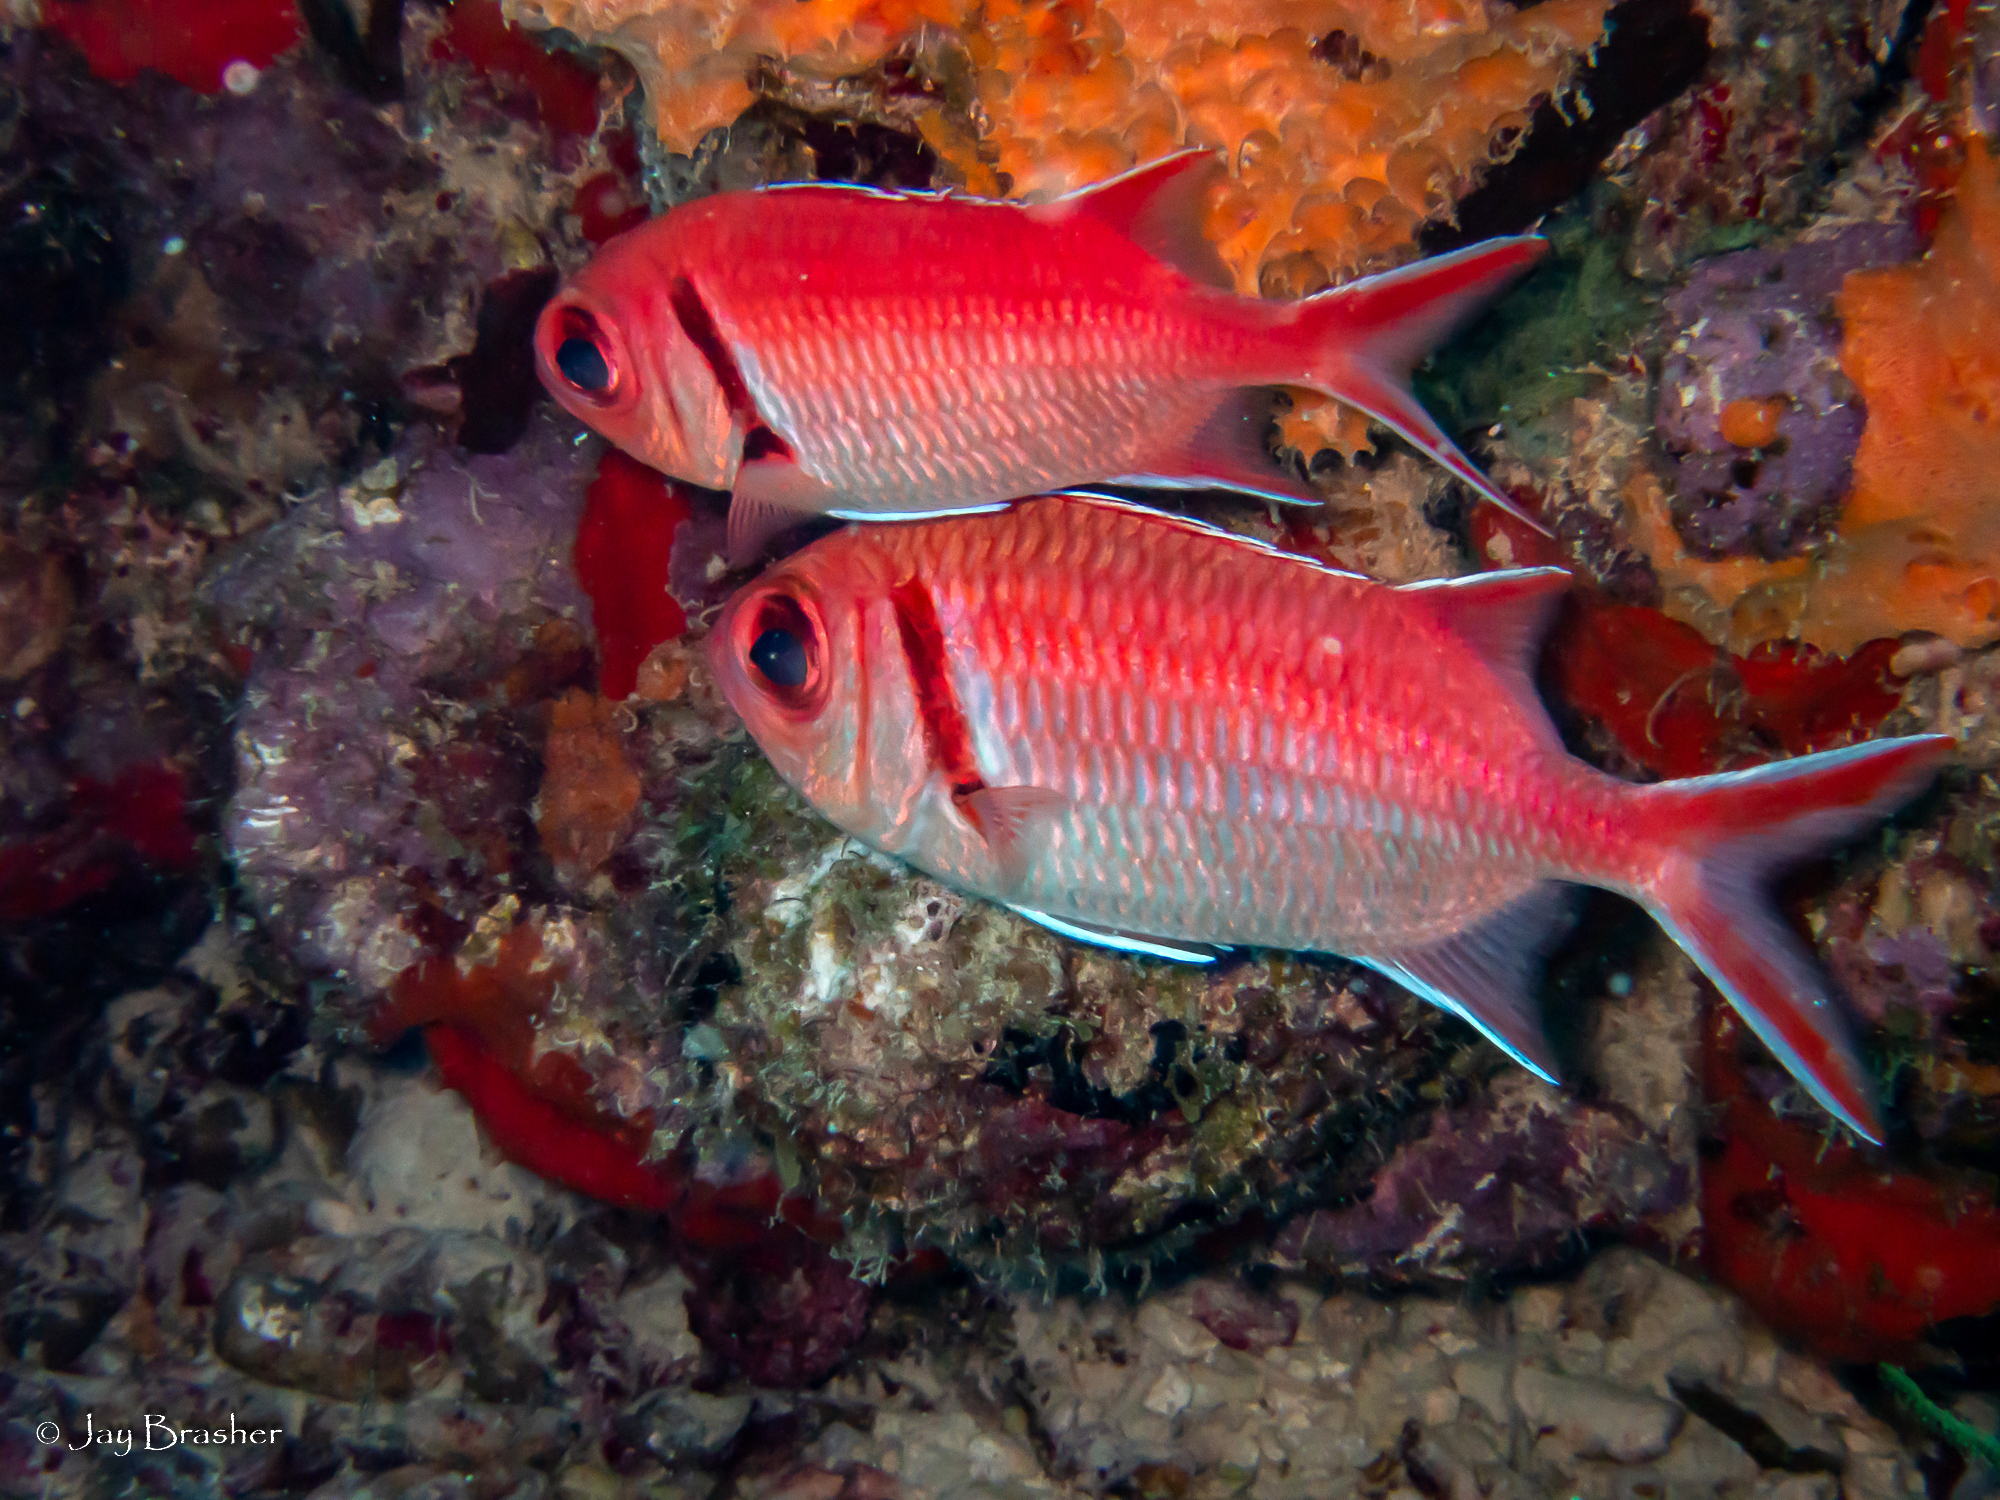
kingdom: Animalia
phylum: Porifera
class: Demospongiae
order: Scopalinida
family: Scopalinidae
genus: Scopalina
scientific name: Scopalina ruetzleri
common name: Orange lumpy encrusting sponge
